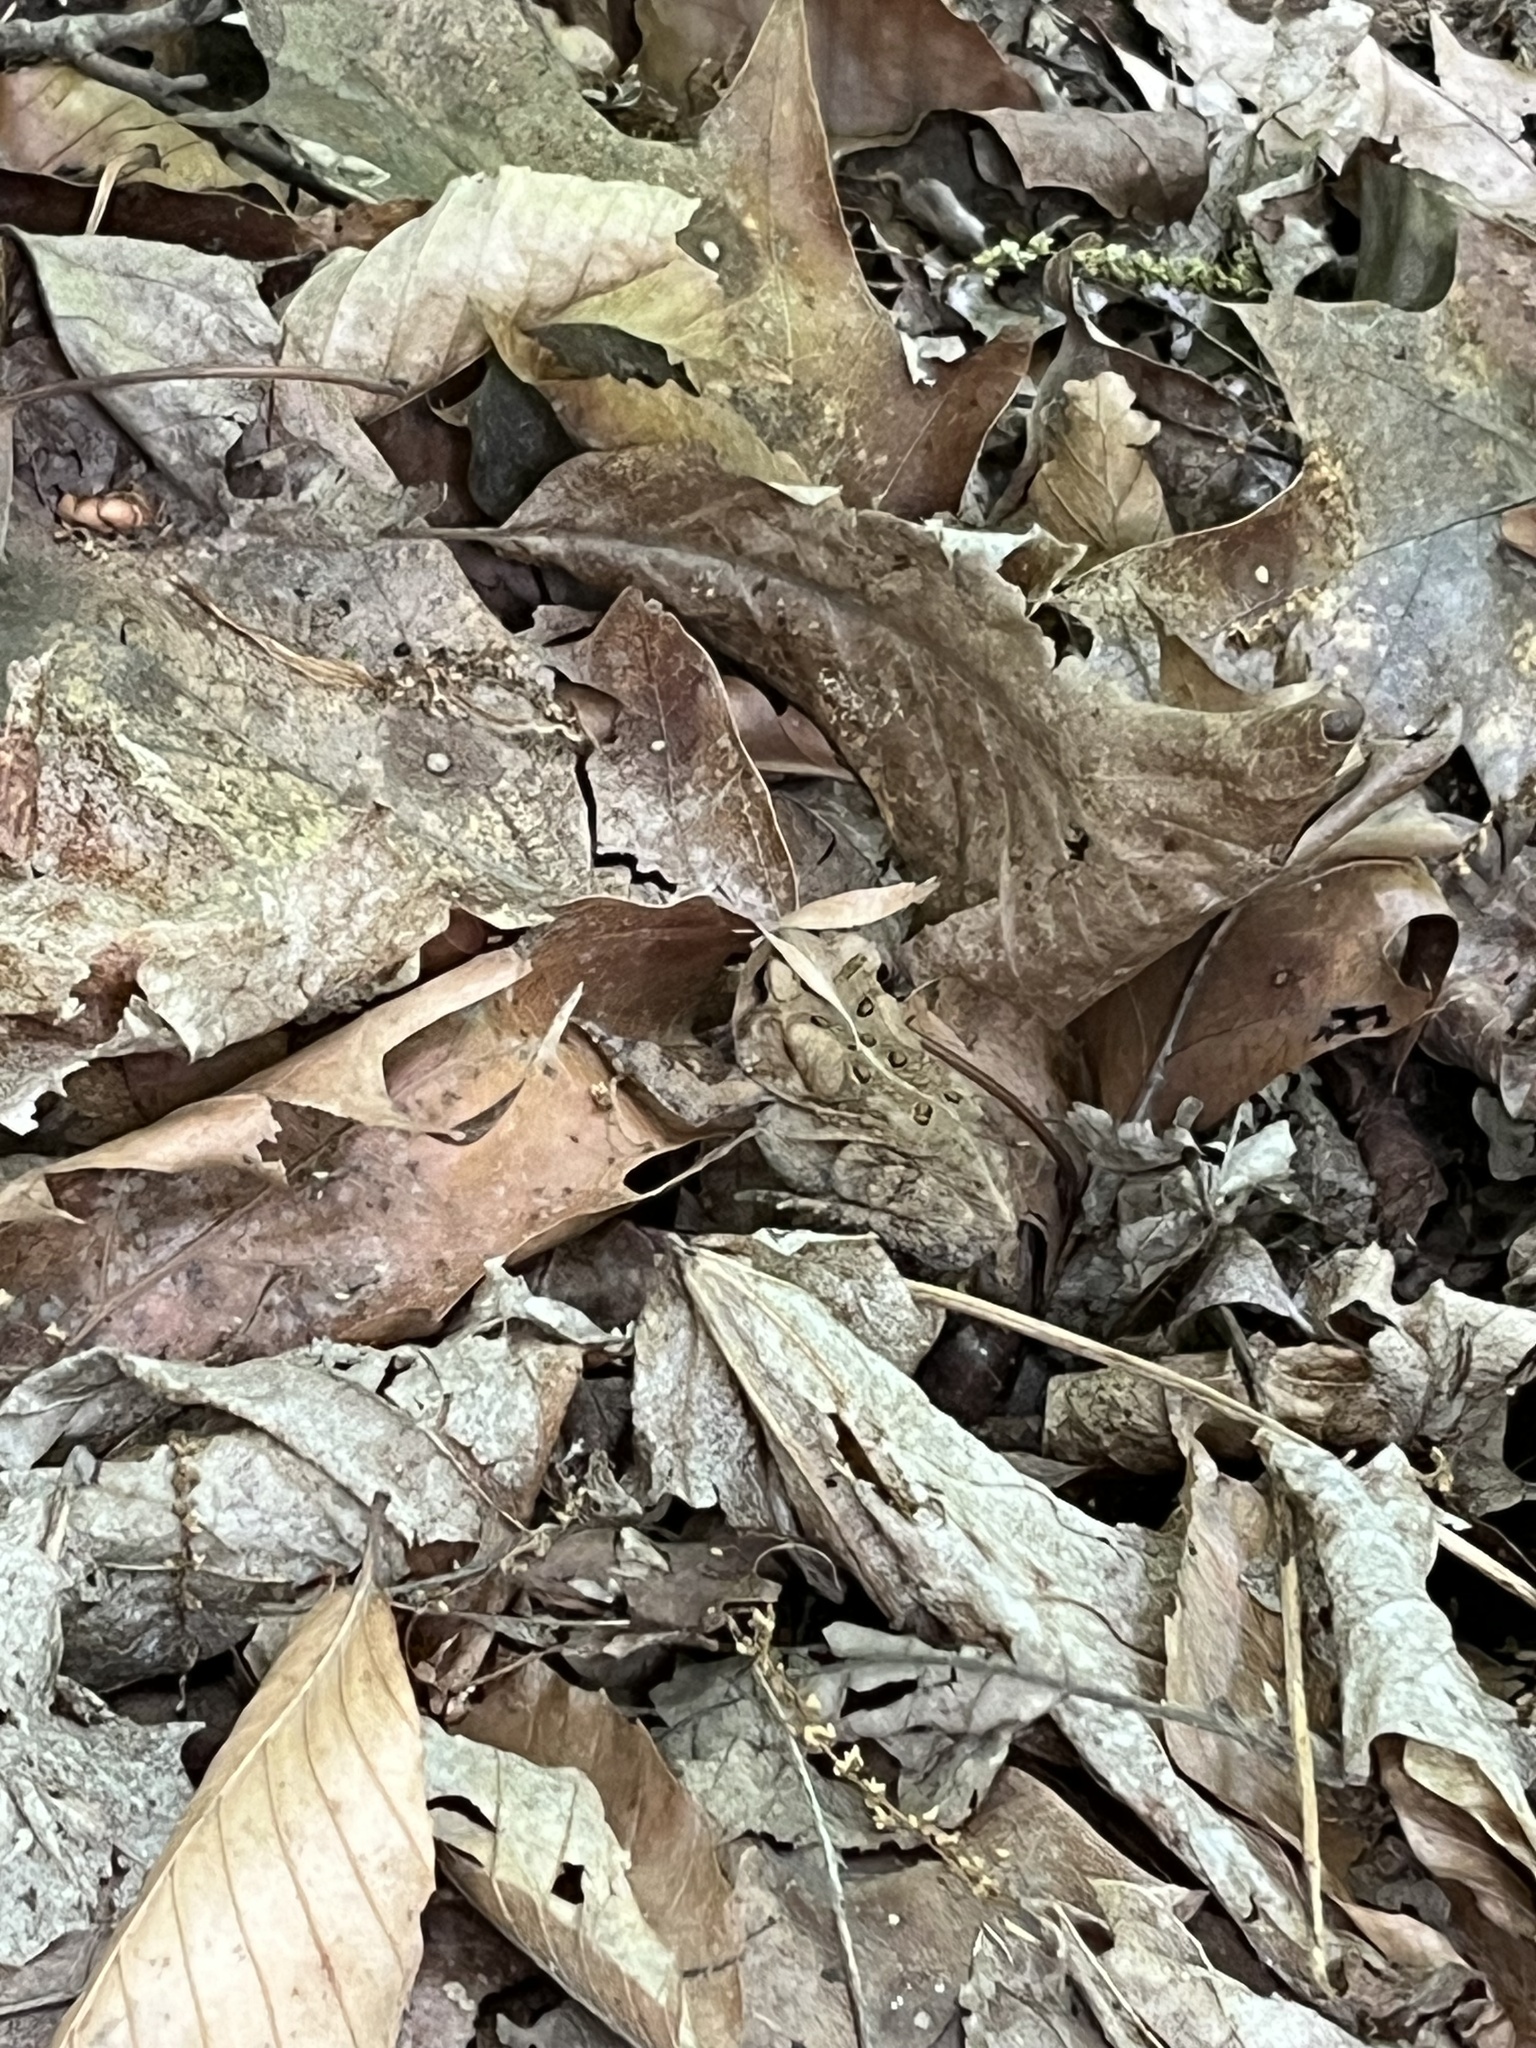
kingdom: Animalia
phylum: Chordata
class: Amphibia
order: Anura
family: Bufonidae
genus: Anaxyrus
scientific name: Anaxyrus americanus
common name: American toad
